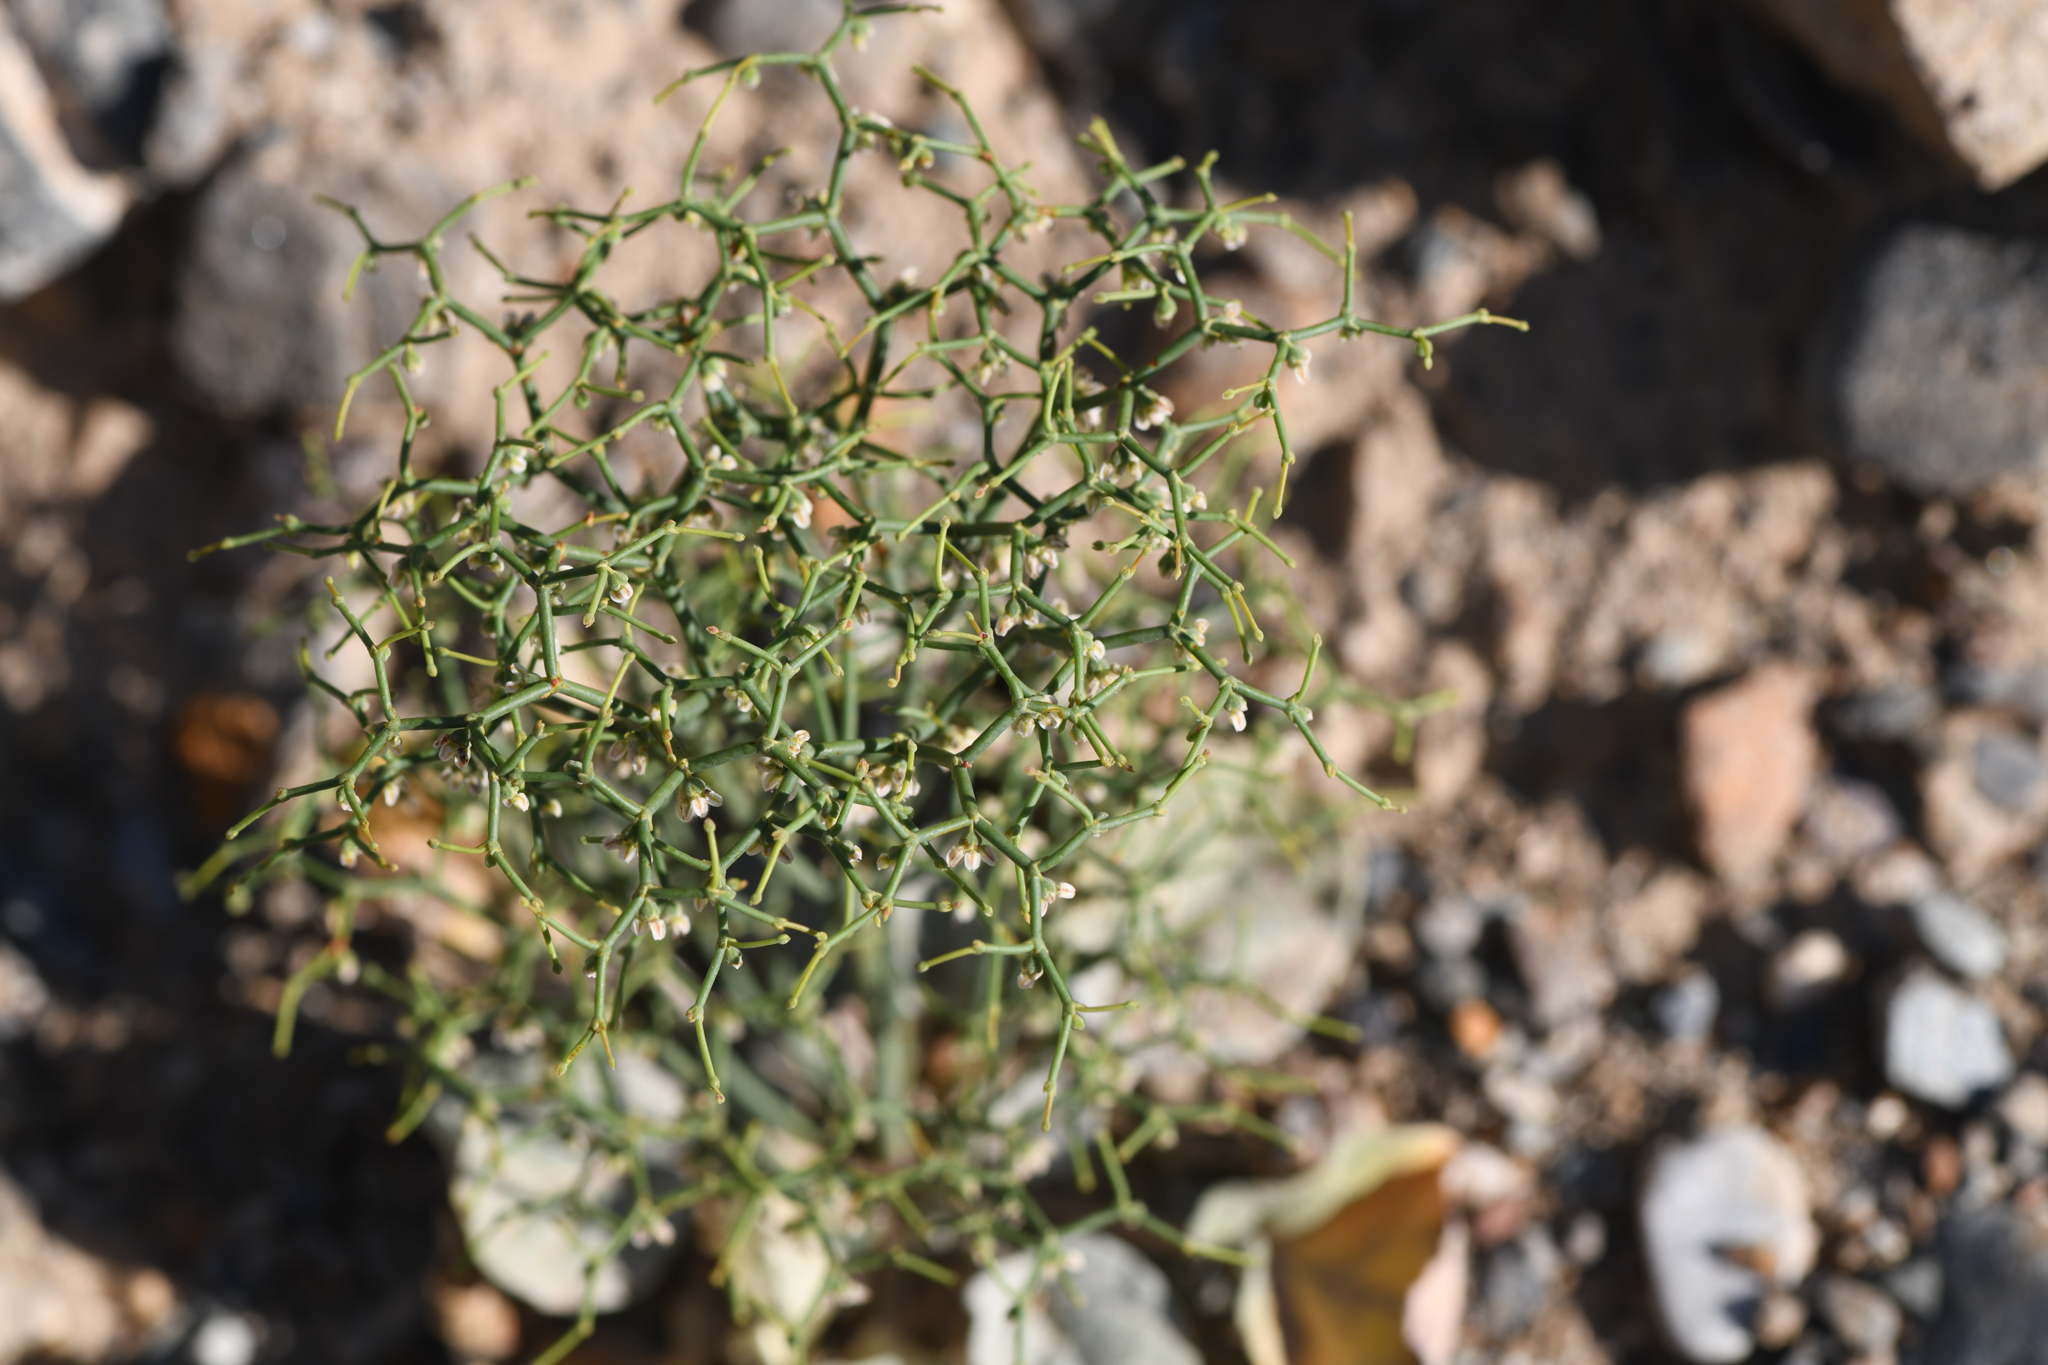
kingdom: Plantae
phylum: Tracheophyta
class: Magnoliopsida
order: Caryophyllales
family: Polygonaceae
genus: Eriogonum
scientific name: Eriogonum rixfordii
